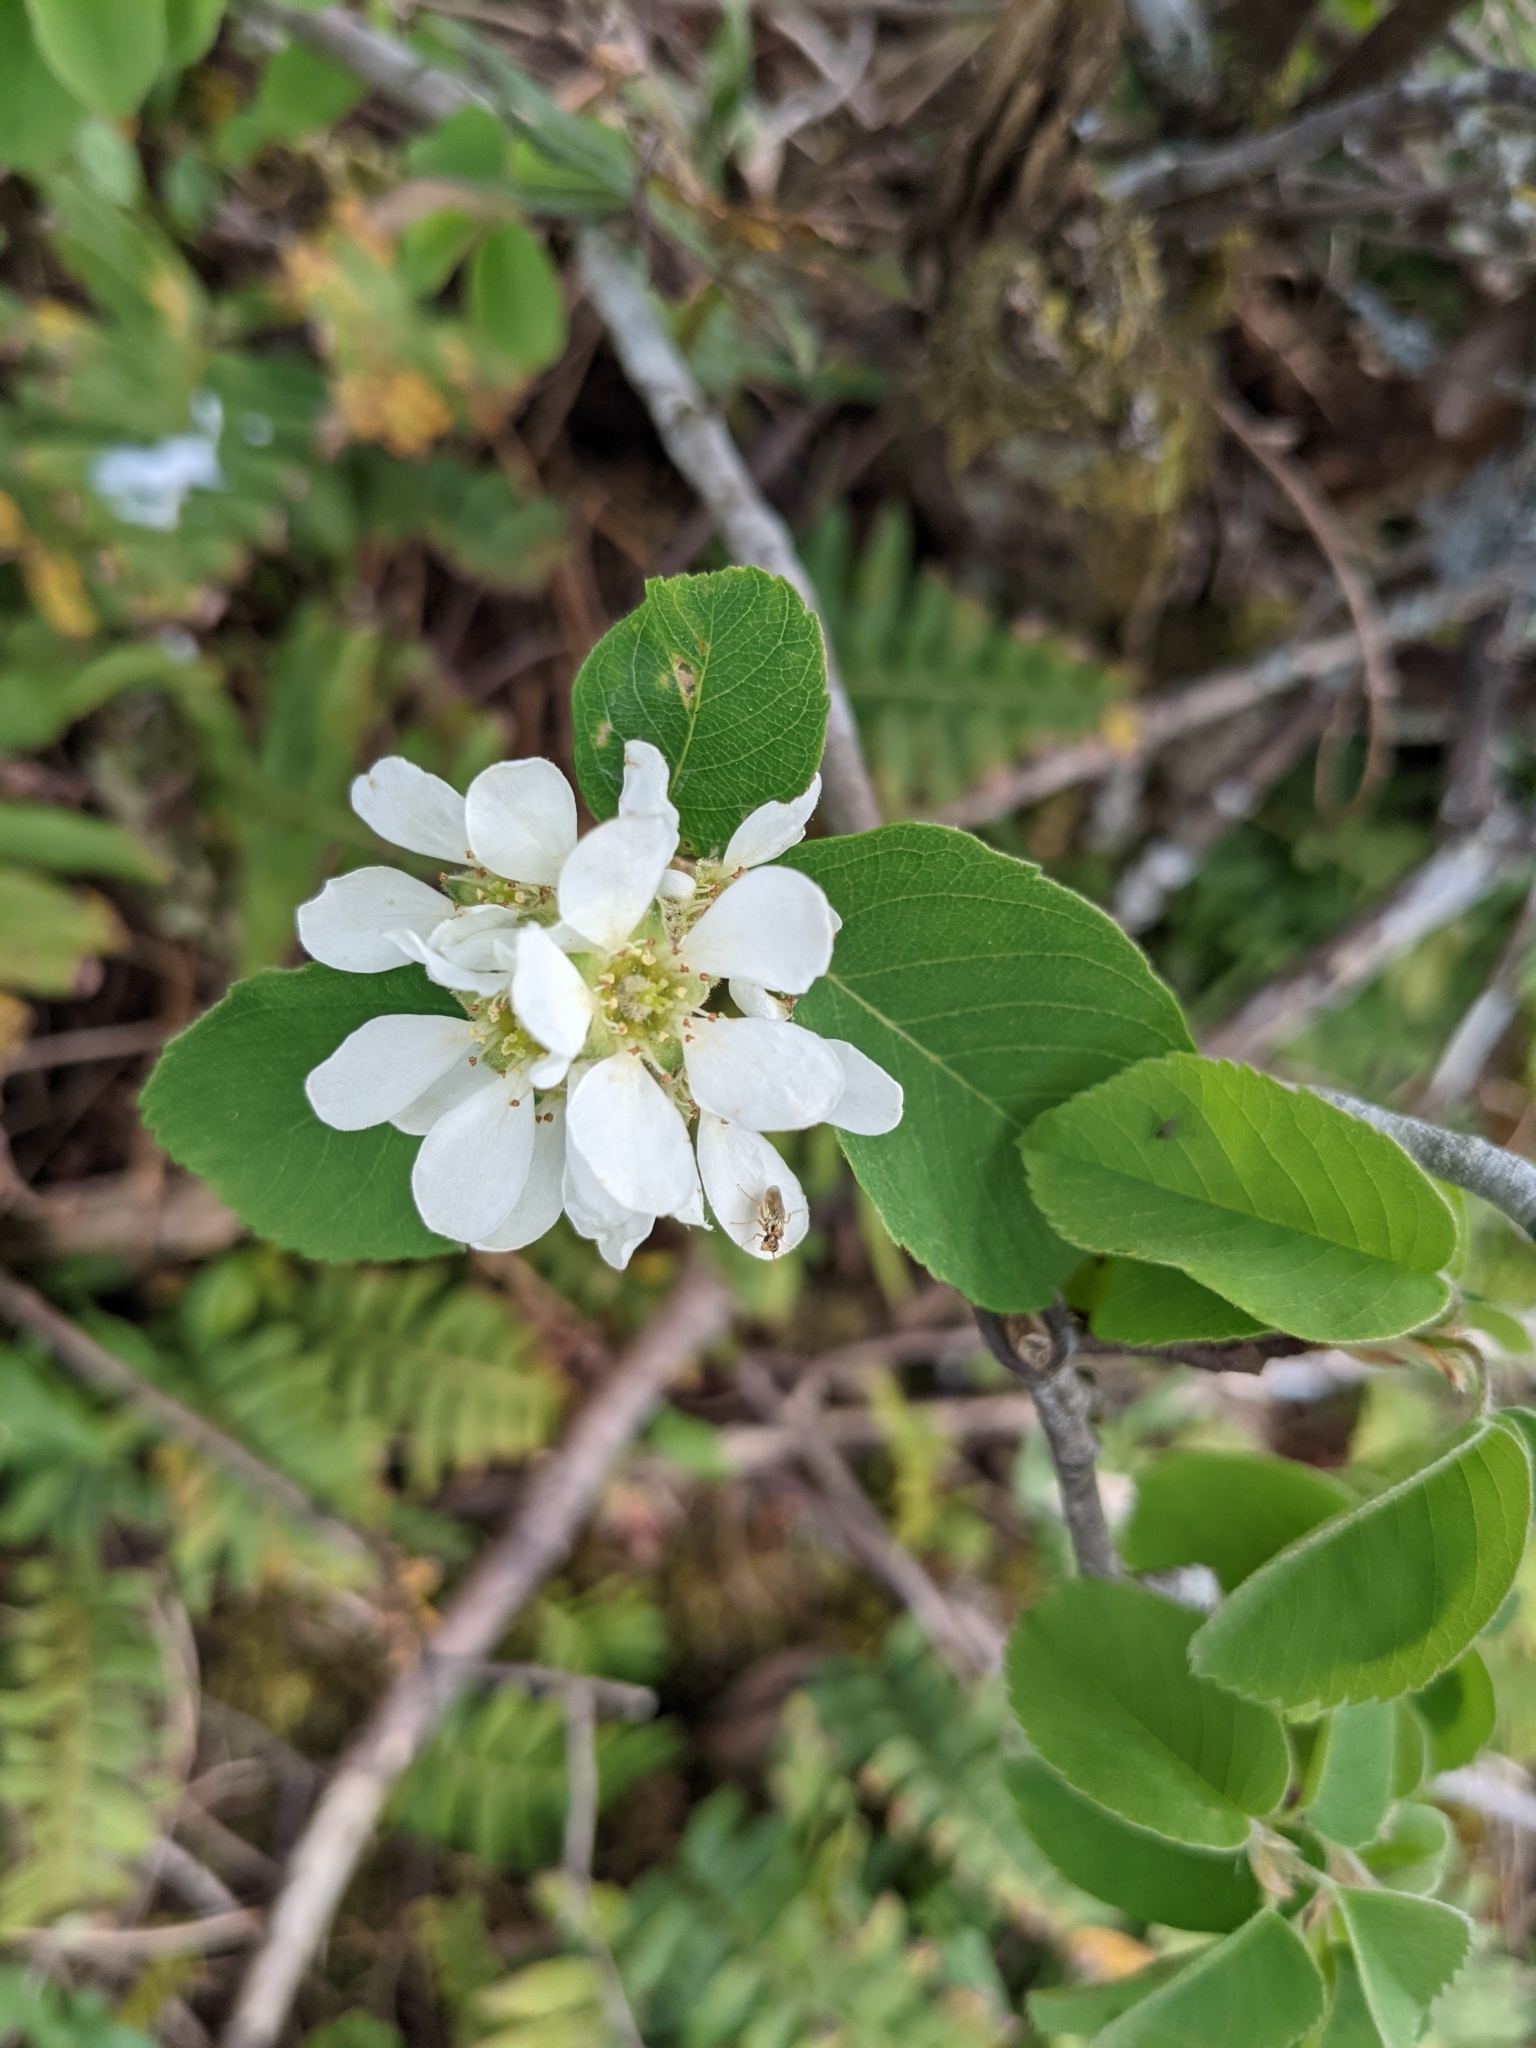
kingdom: Plantae
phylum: Tracheophyta
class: Magnoliopsida
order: Rosales
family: Rosaceae
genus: Amelanchier
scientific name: Amelanchier alnifolia
